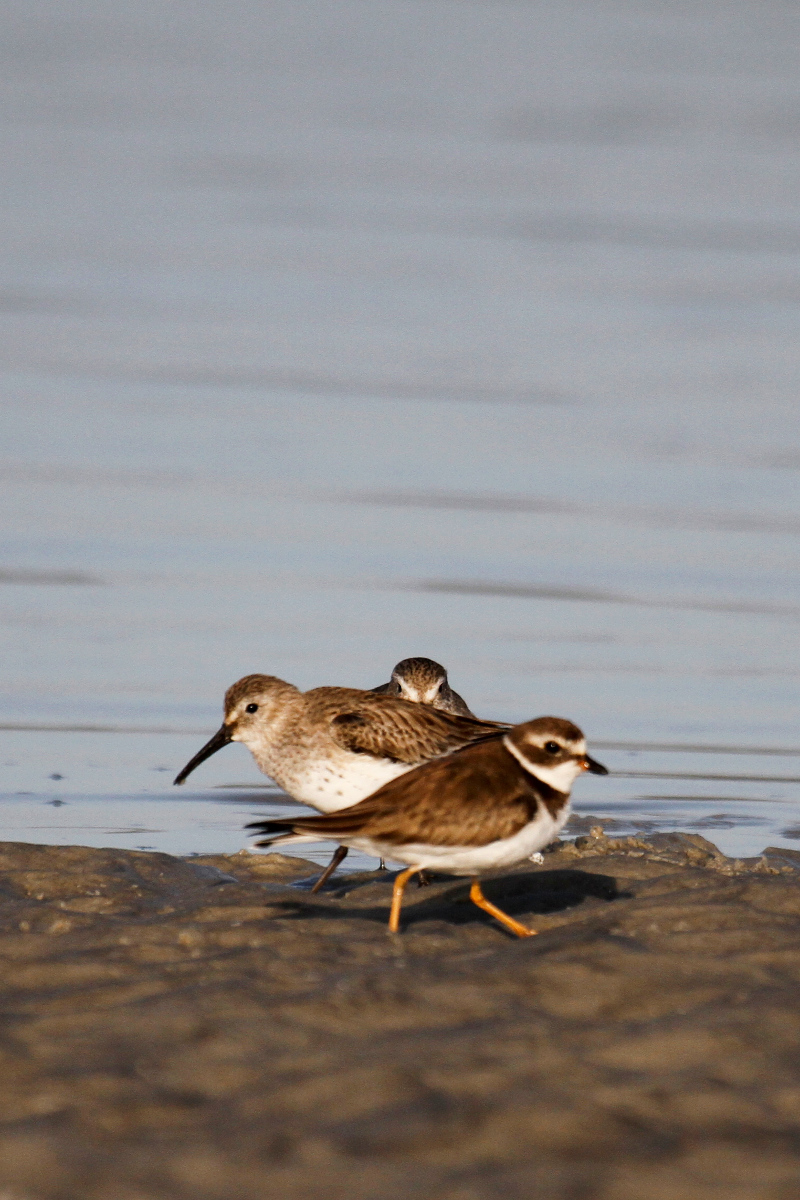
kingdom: Animalia
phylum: Chordata
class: Aves
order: Charadriiformes
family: Charadriidae
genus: Charadrius
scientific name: Charadrius semipalmatus
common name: Semipalmated plover
